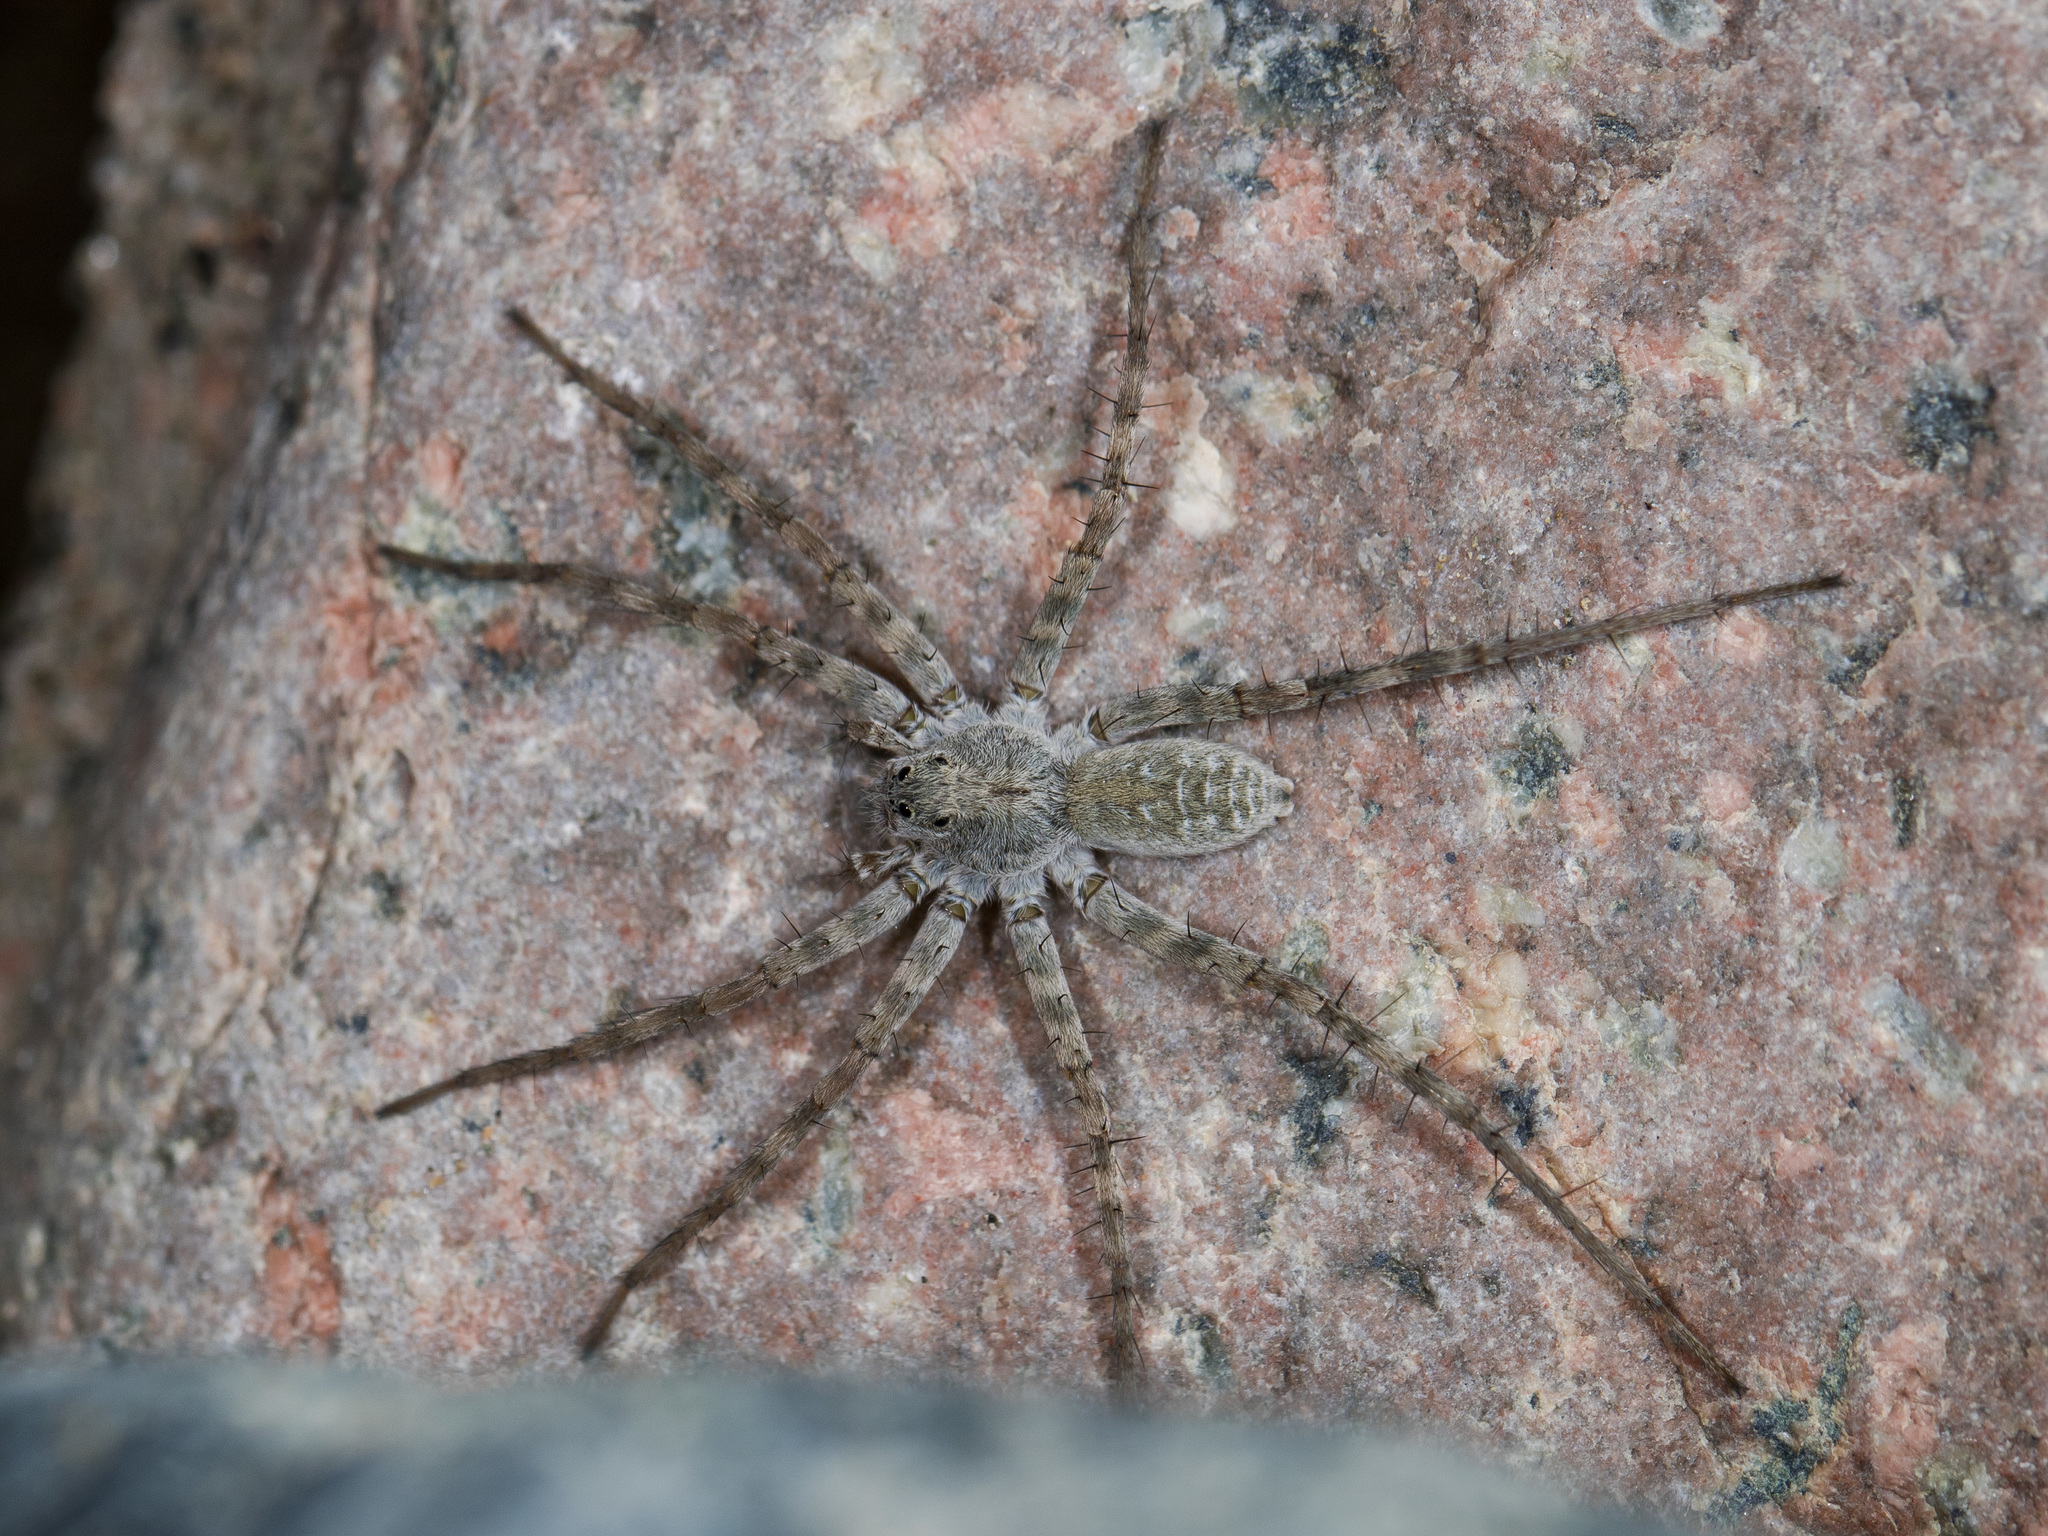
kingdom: Animalia
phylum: Arthropoda
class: Arachnida
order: Araneae
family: Lycosidae
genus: Pardosa
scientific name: Pardosa falcata
